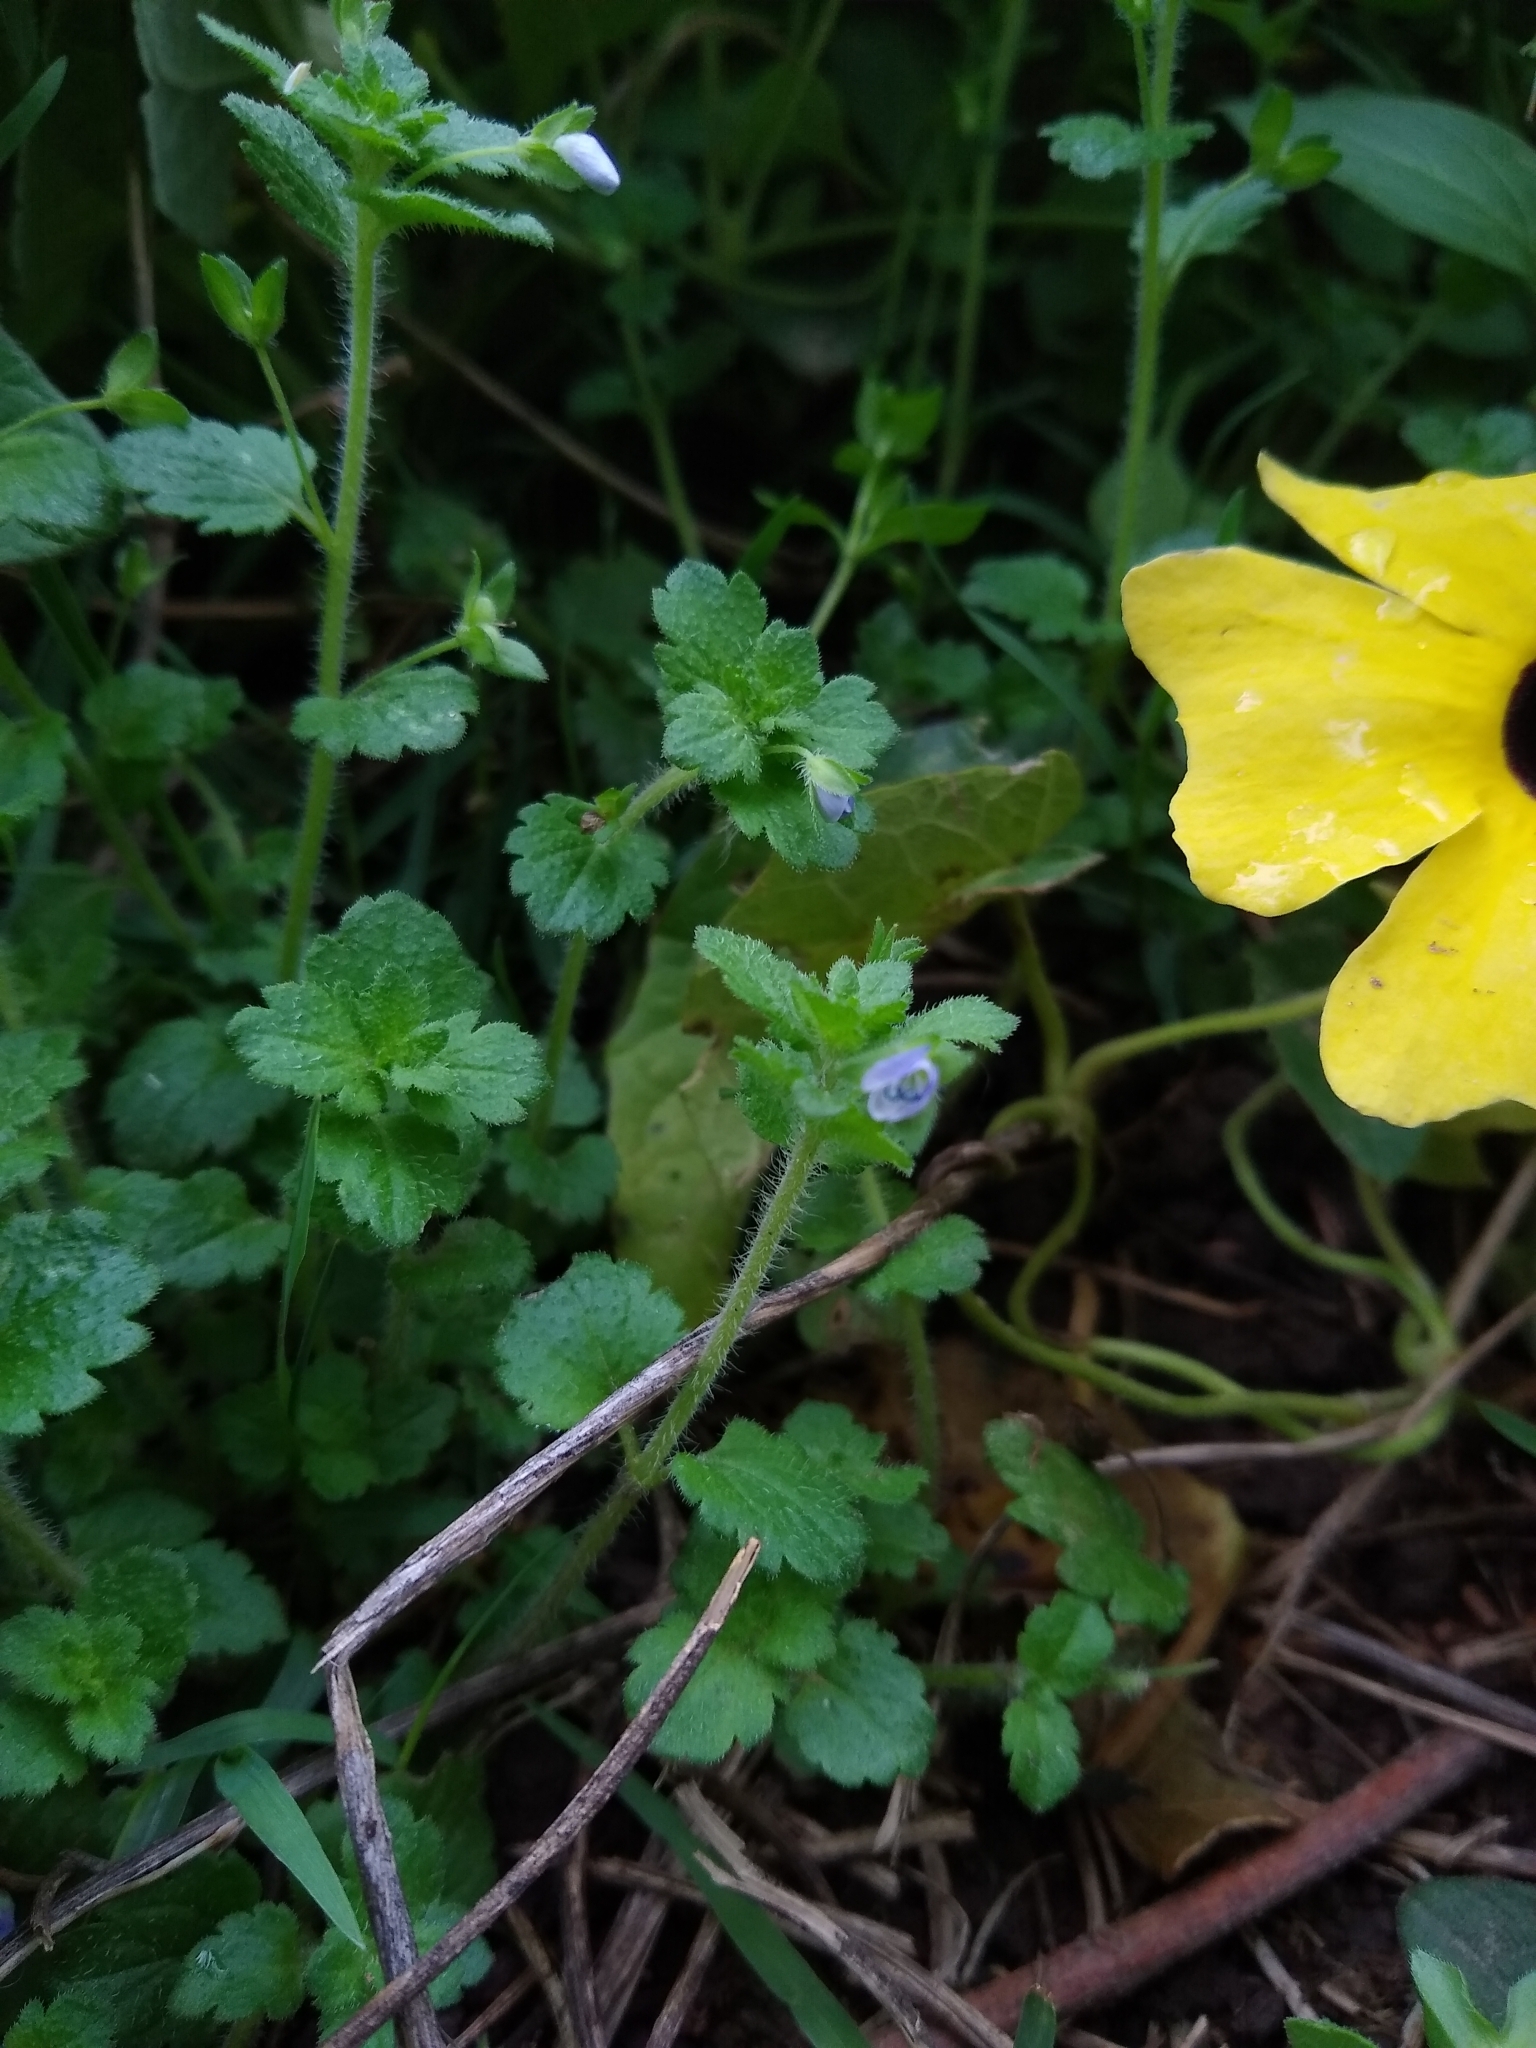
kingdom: Plantae
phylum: Tracheophyta
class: Magnoliopsida
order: Lamiales
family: Plantaginaceae
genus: Veronica
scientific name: Veronica persica
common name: Common field-speedwell
